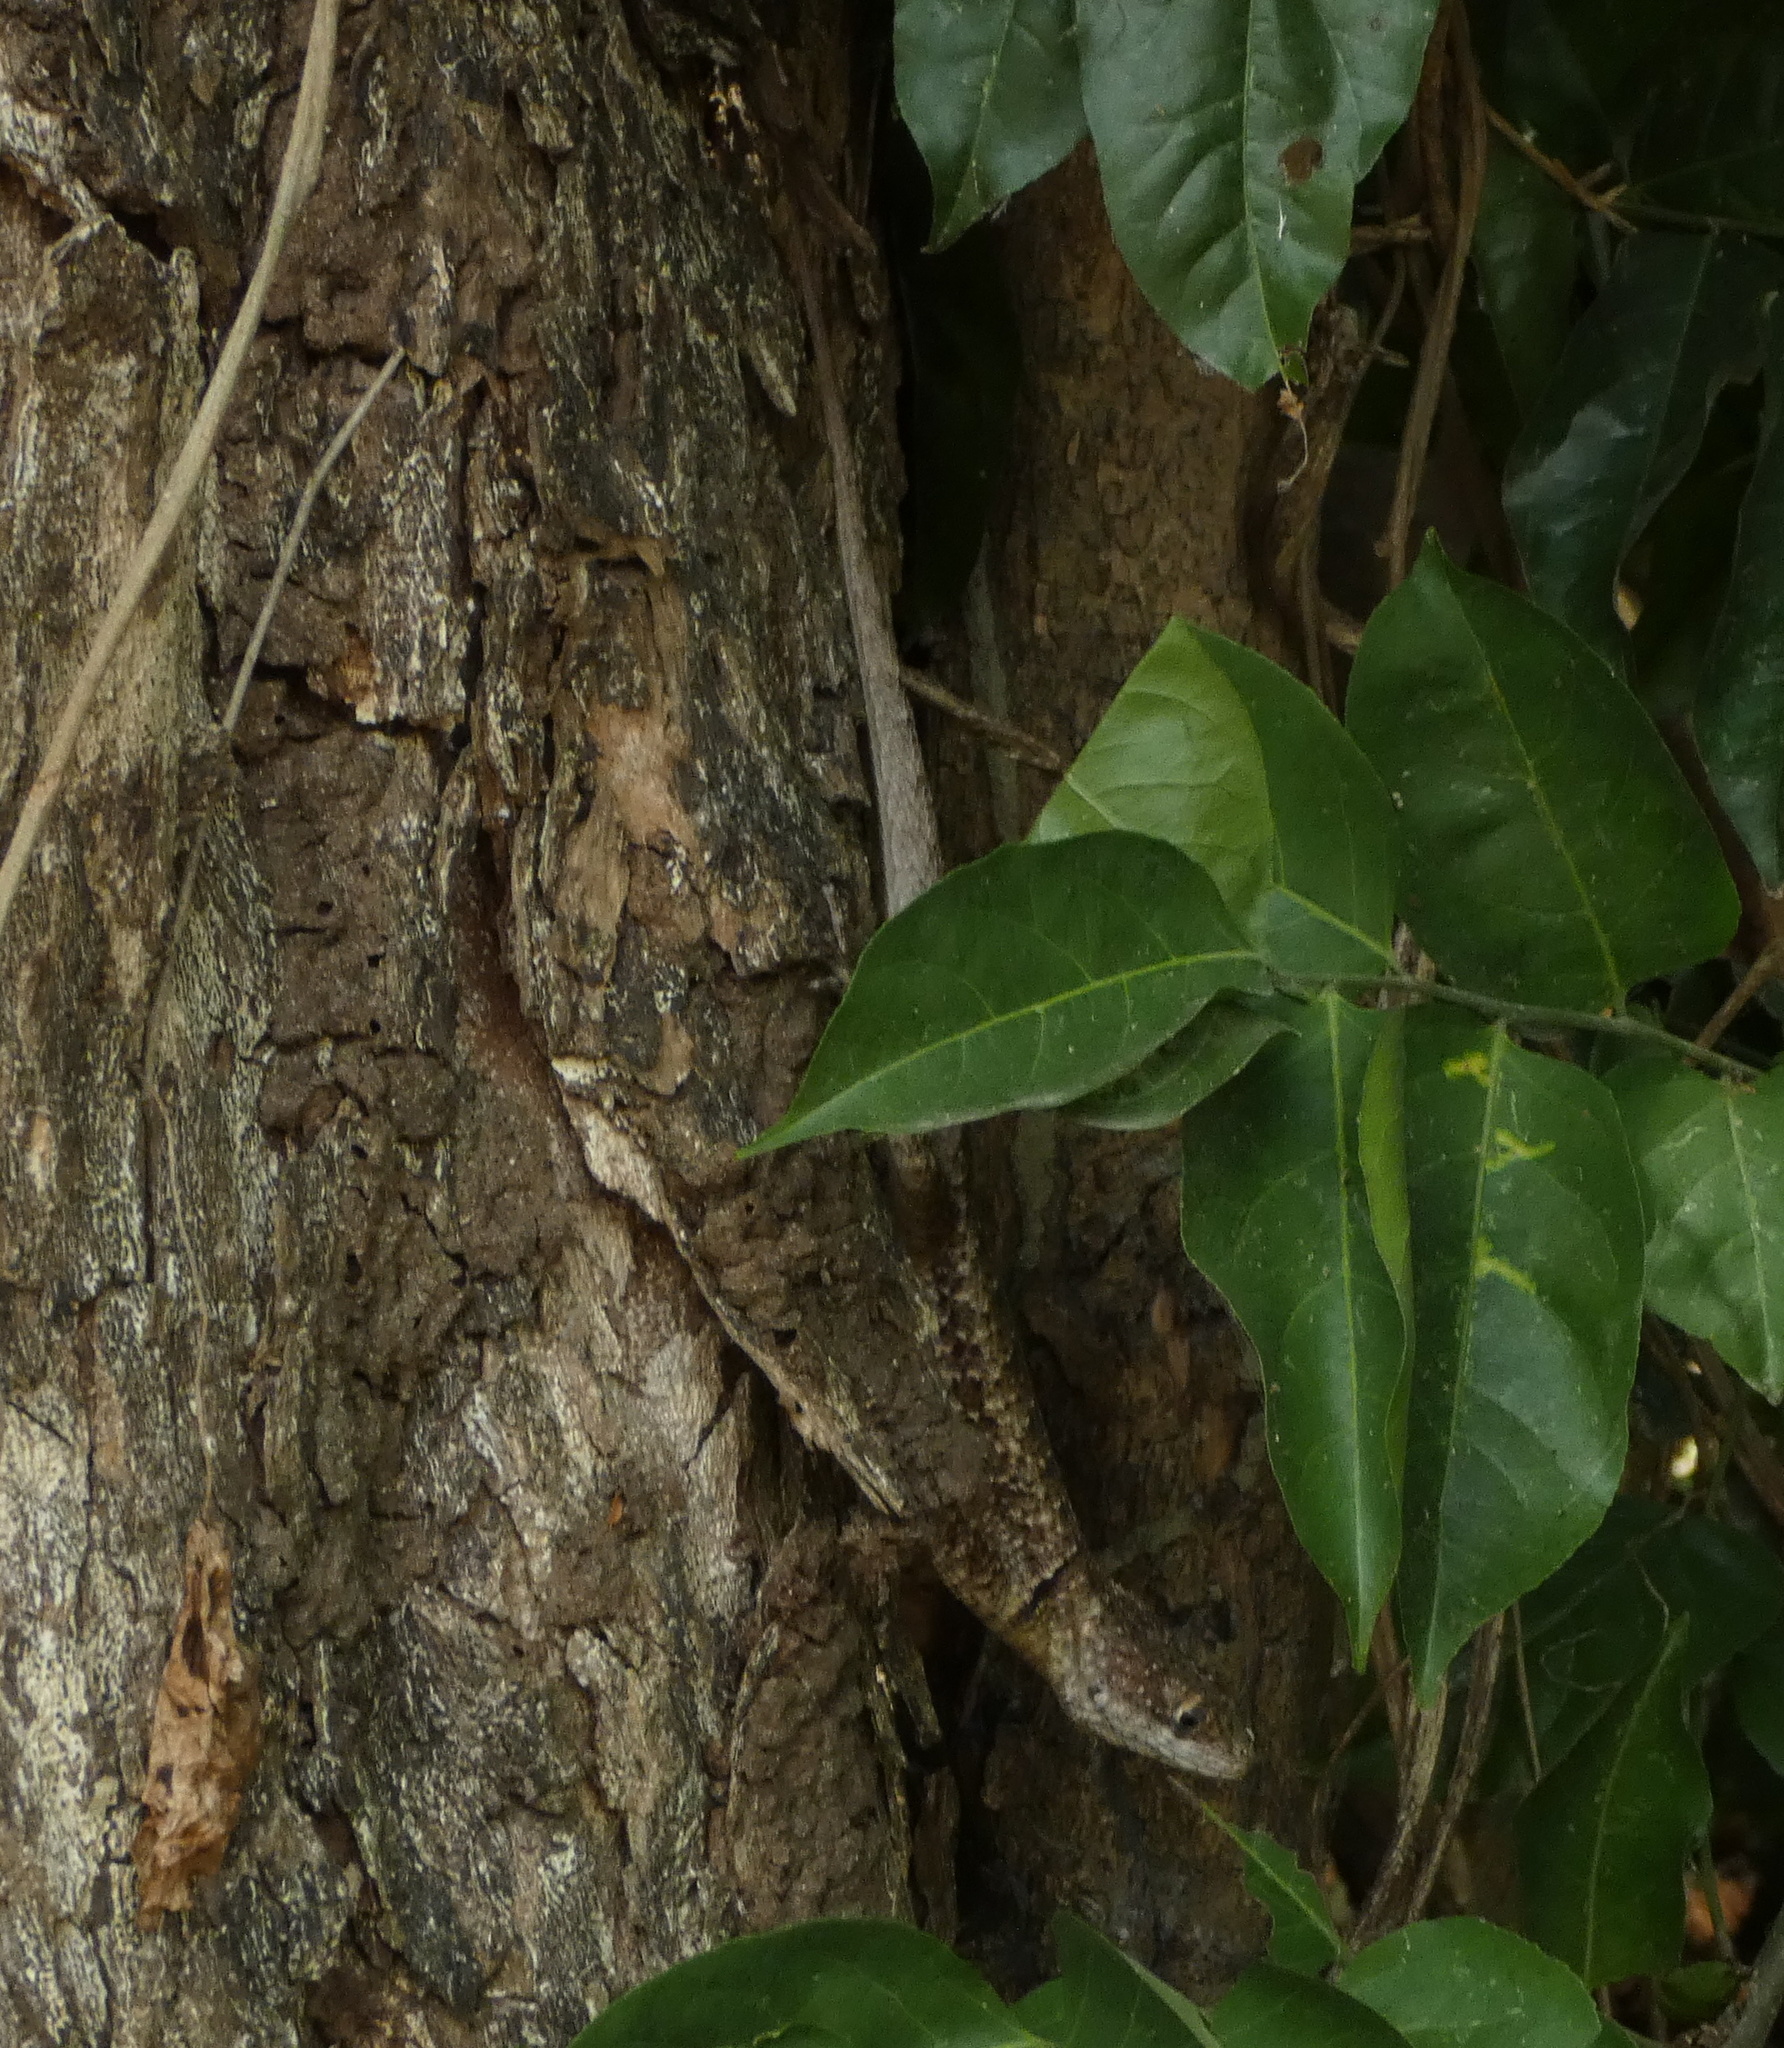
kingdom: Animalia
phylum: Chordata
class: Squamata
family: Tropiduridae
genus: Tropidurus
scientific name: Tropidurus hispidus
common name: Peters' lava lizard
